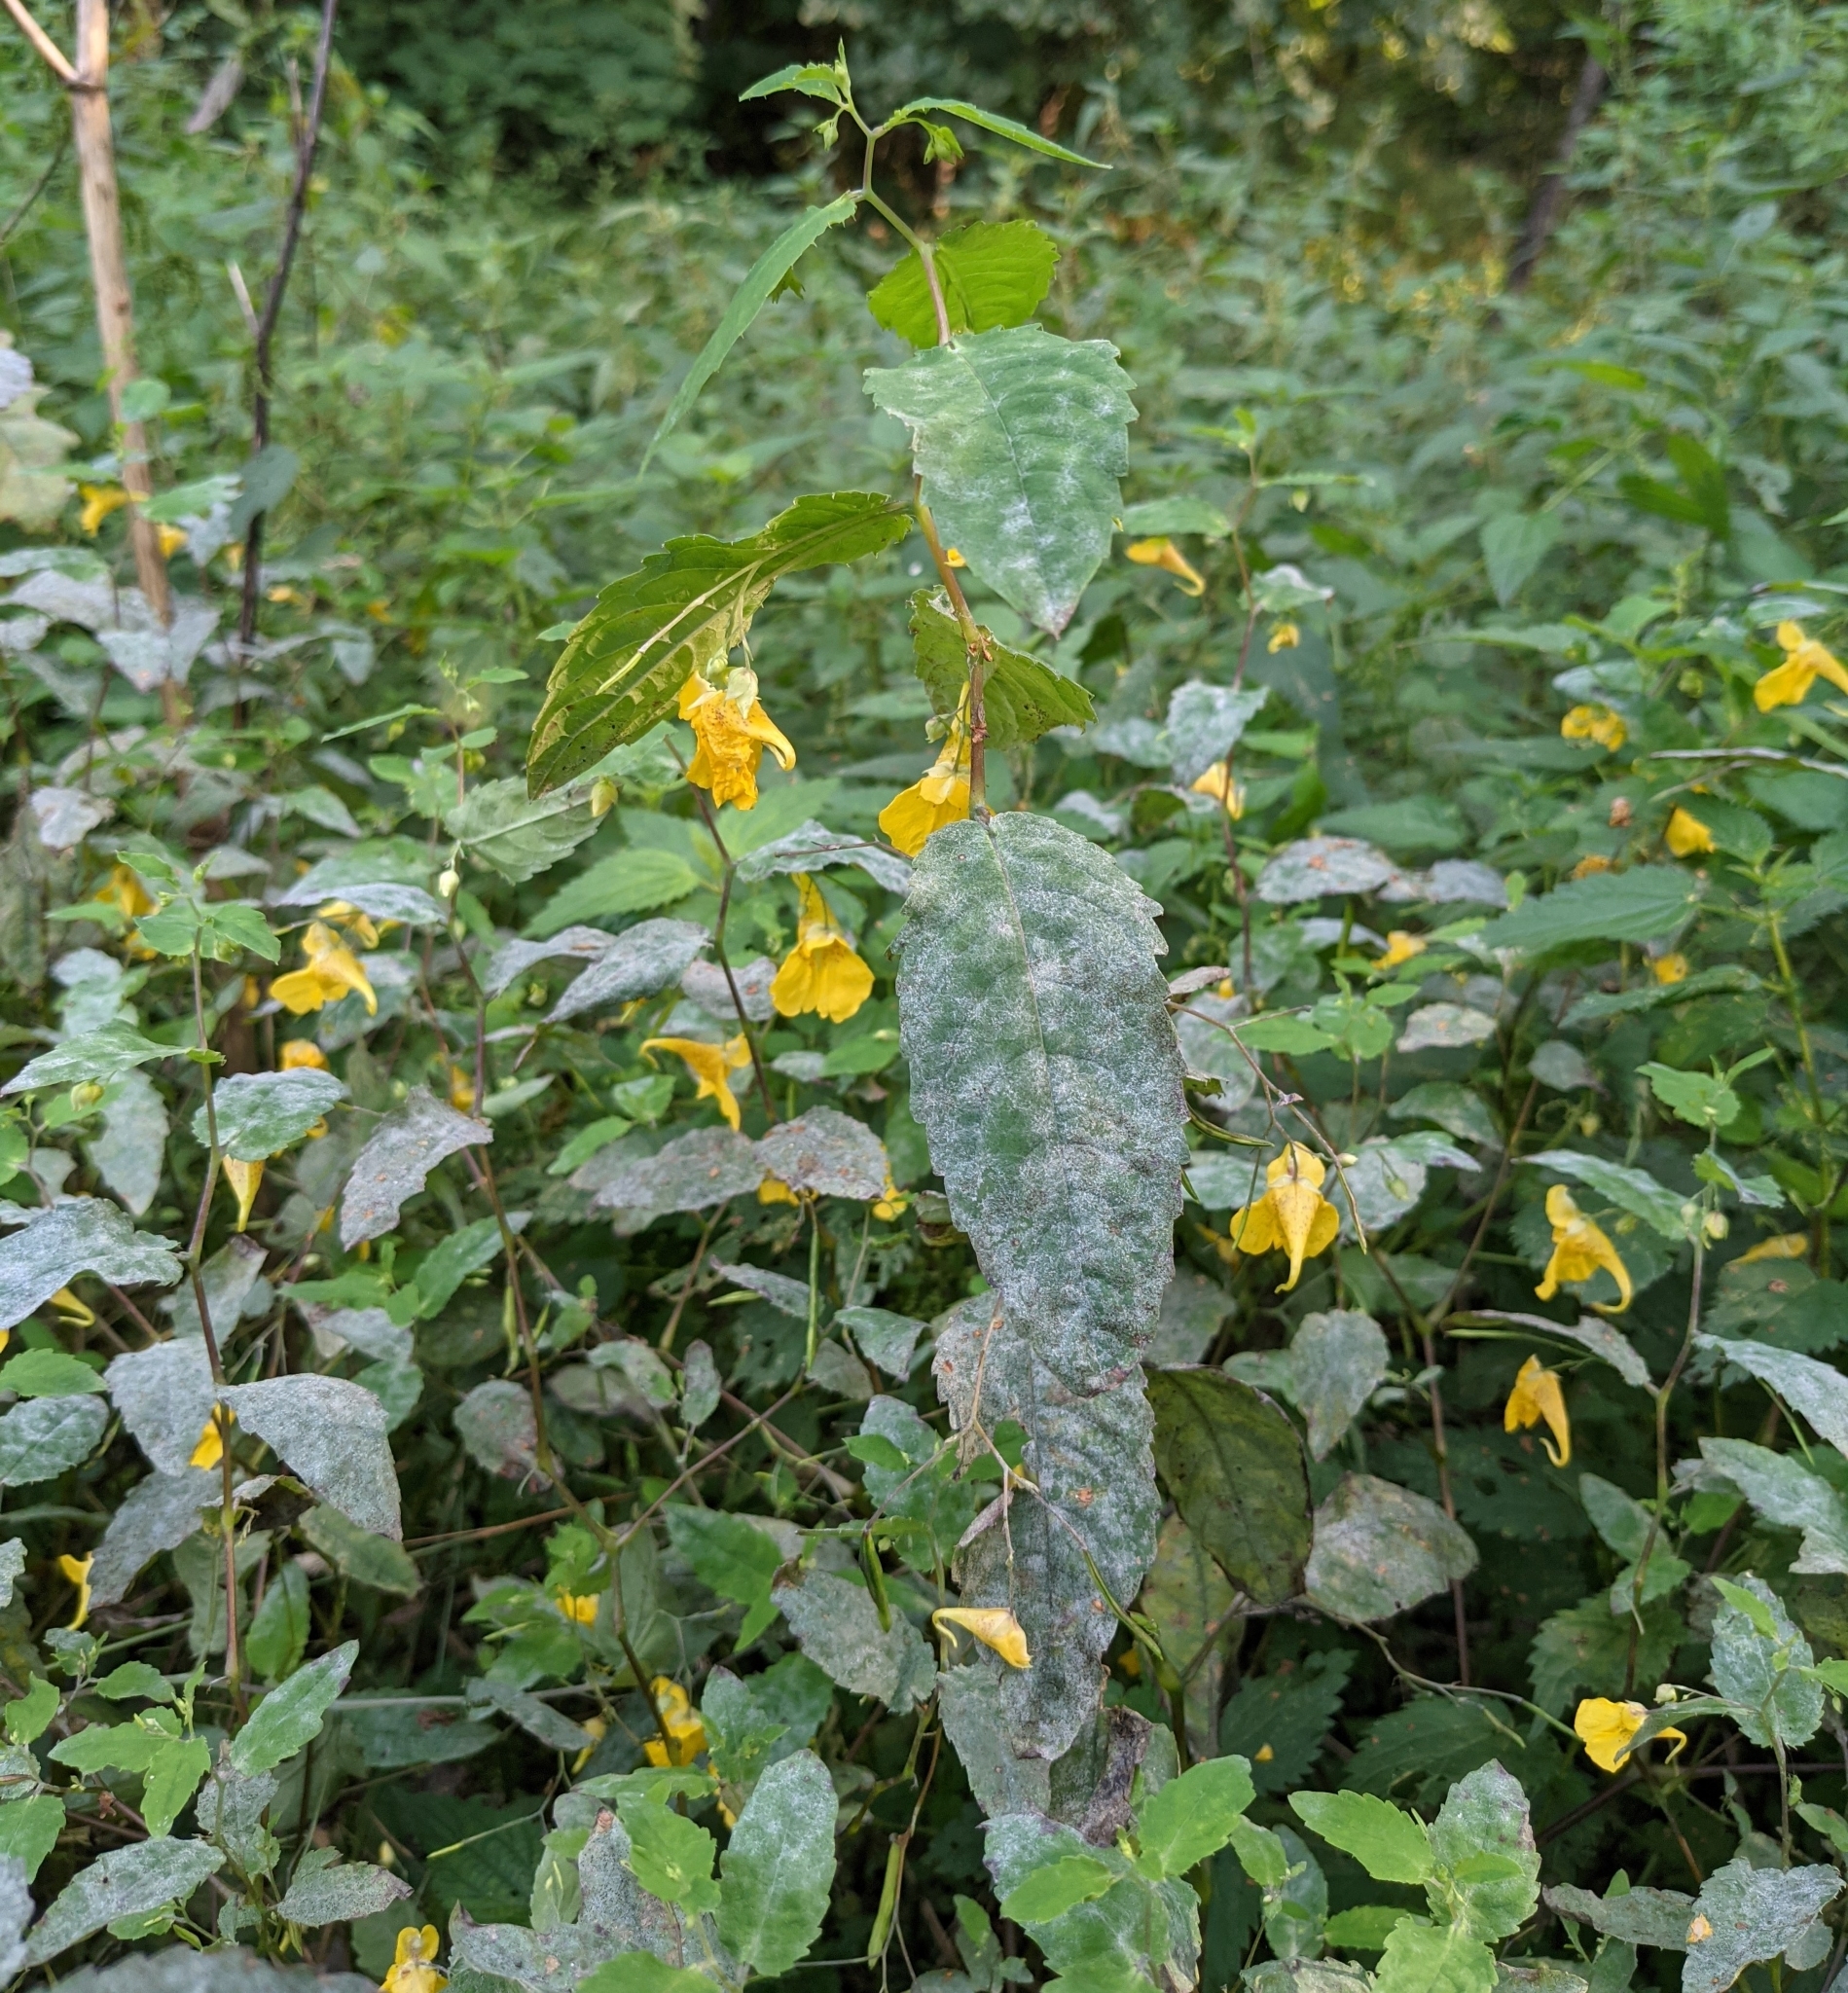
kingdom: Plantae
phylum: Tracheophyta
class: Magnoliopsida
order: Ericales
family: Balsaminaceae
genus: Impatiens
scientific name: Impatiens noli-tangere
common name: Touch-me-not balsam
